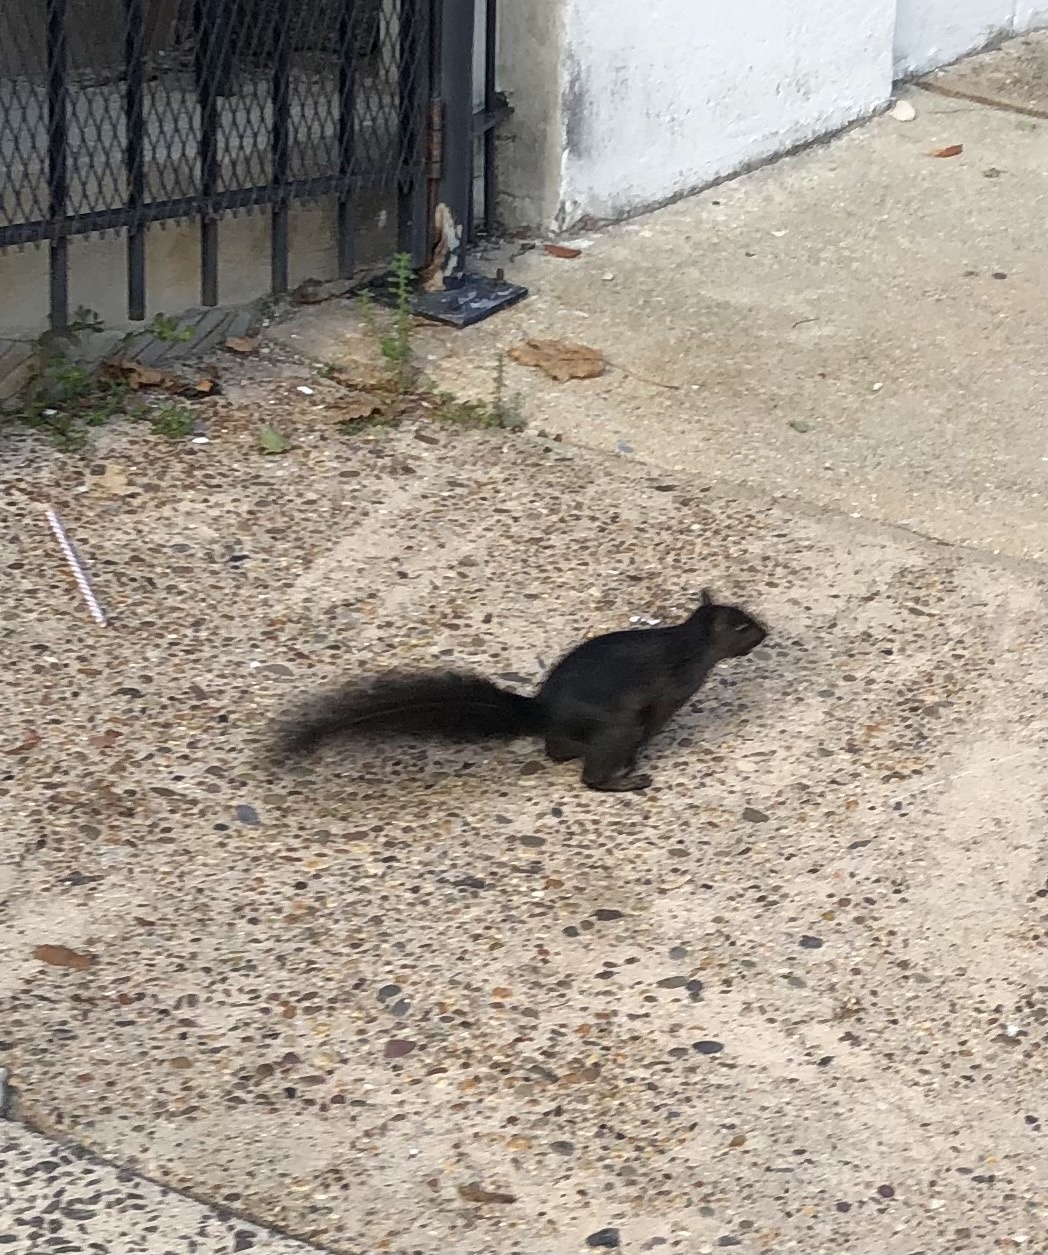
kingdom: Animalia
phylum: Chordata
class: Mammalia
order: Rodentia
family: Sciuridae
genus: Sciurus
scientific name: Sciurus carolinensis
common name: Eastern gray squirrel
